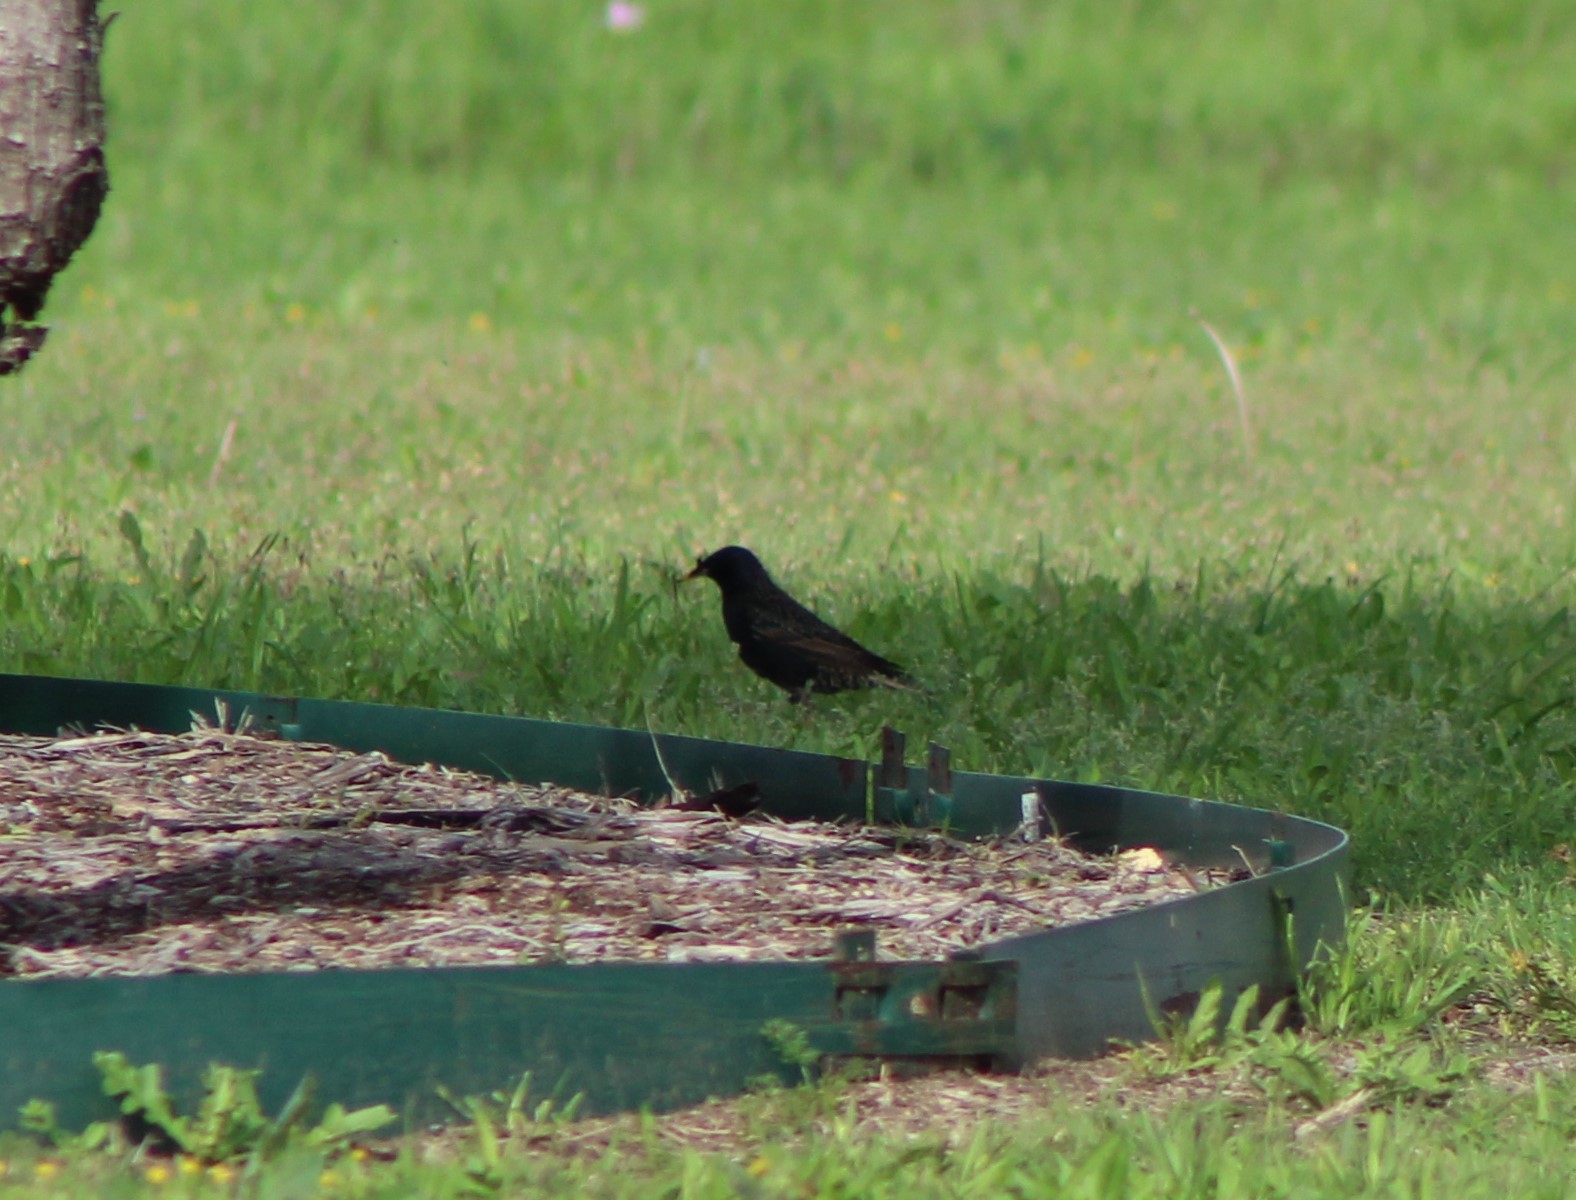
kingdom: Animalia
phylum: Chordata
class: Aves
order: Passeriformes
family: Sturnidae
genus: Sturnus
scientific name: Sturnus vulgaris
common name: Common starling
